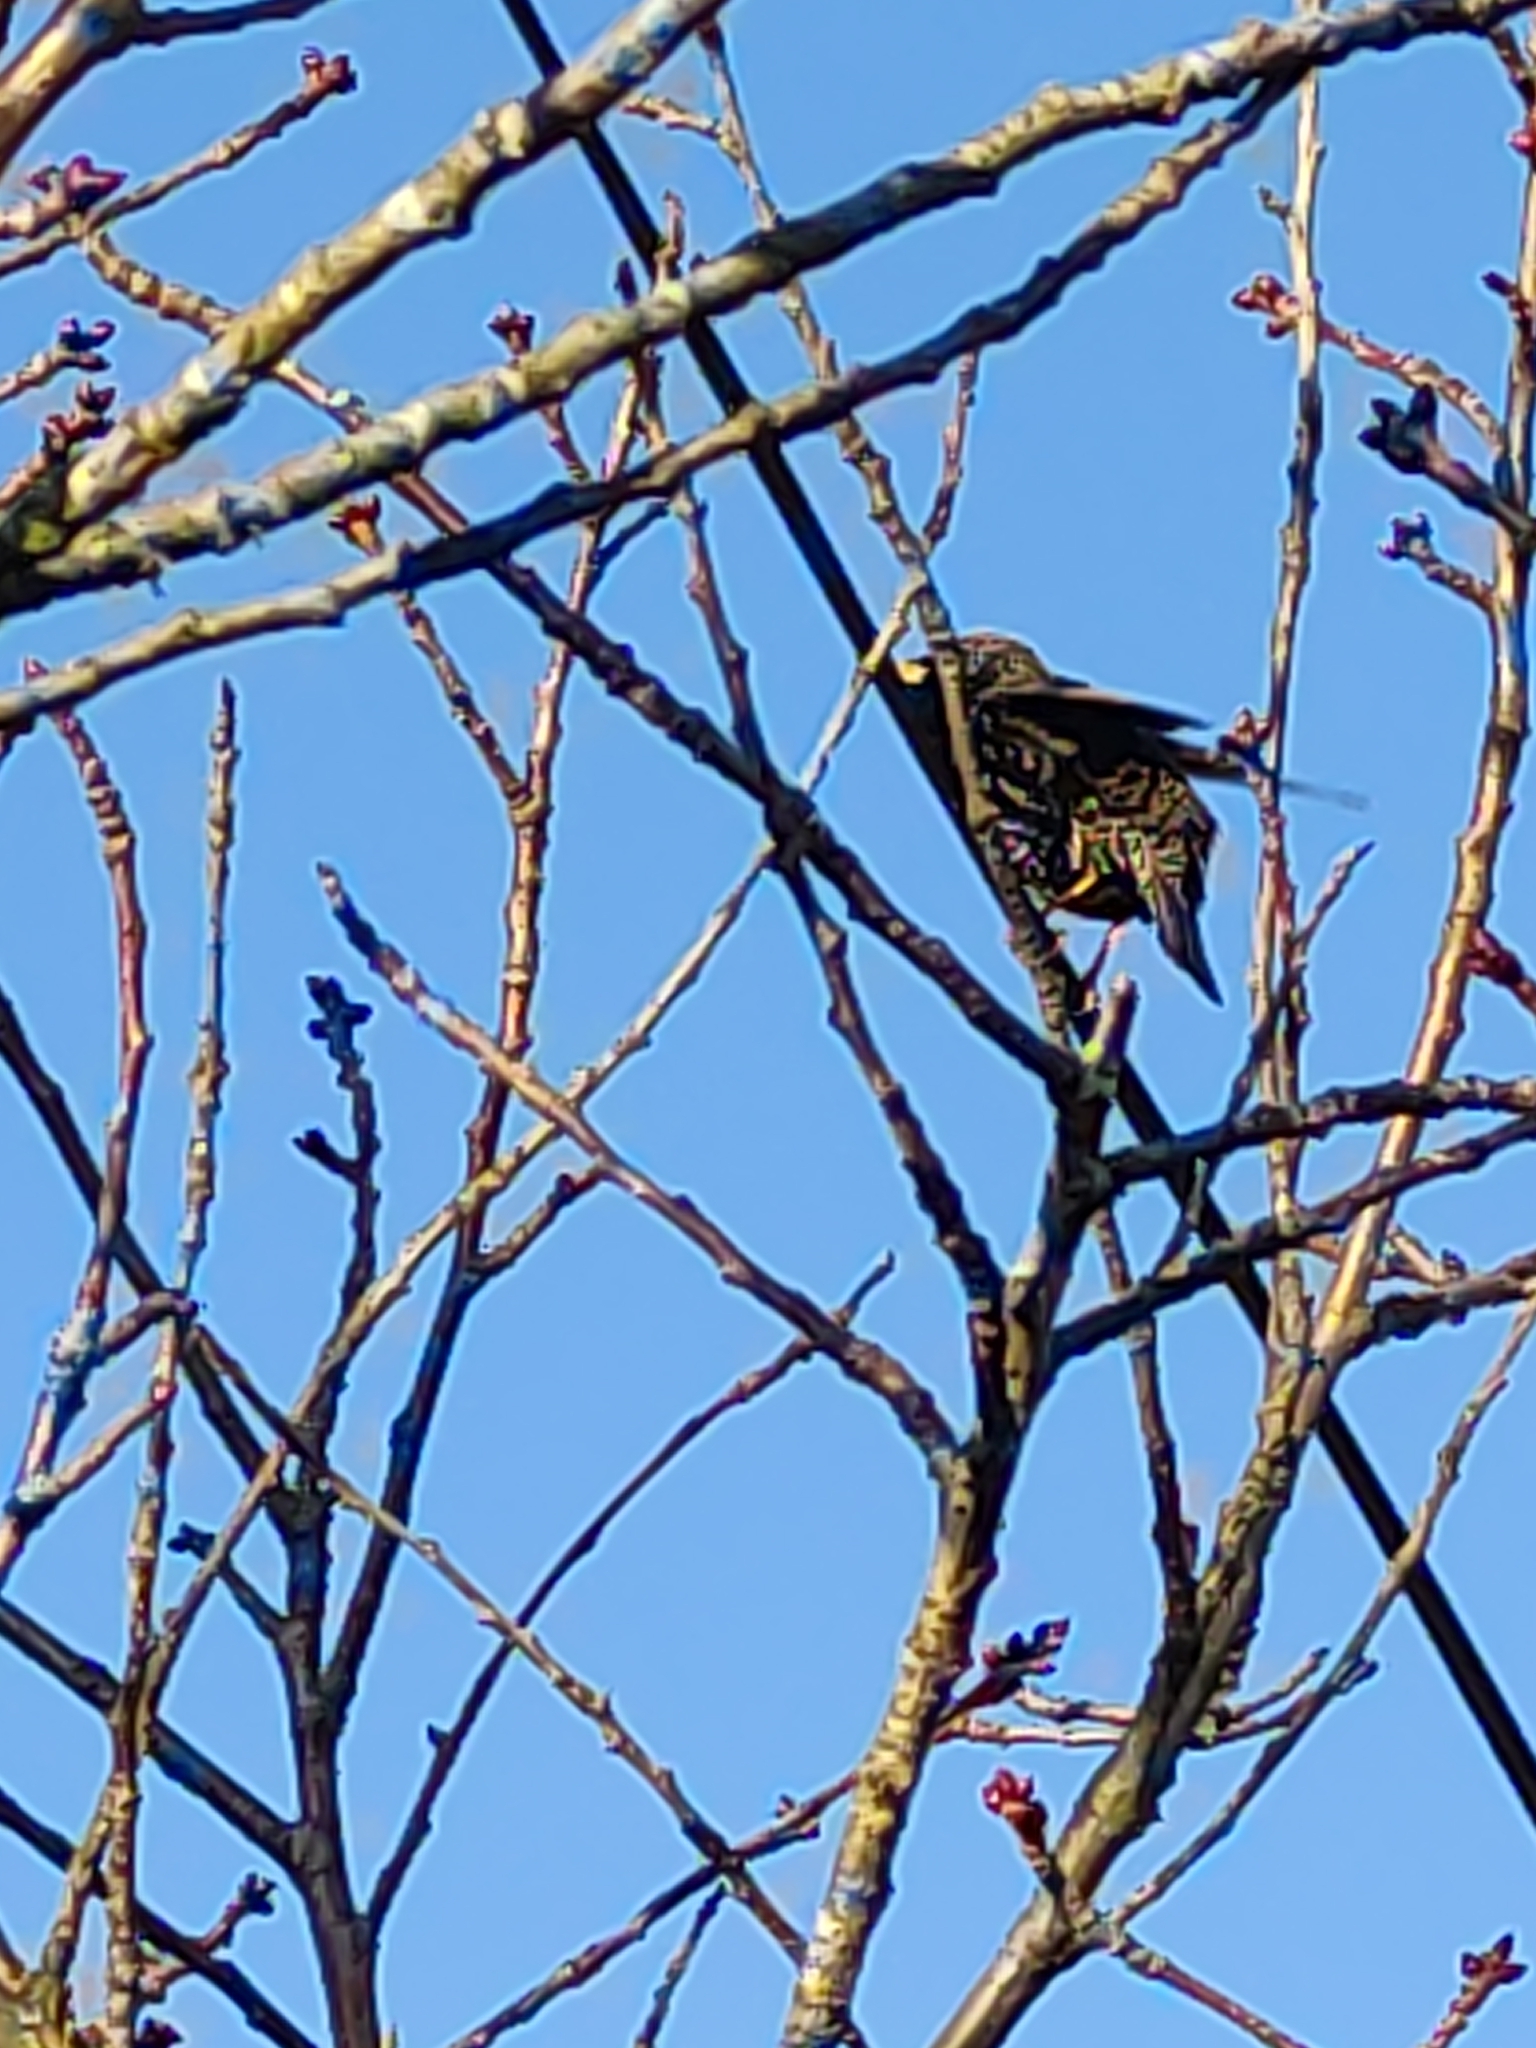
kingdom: Animalia
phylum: Chordata
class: Aves
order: Passeriformes
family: Sturnidae
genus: Sturnus
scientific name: Sturnus vulgaris
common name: Common starling
